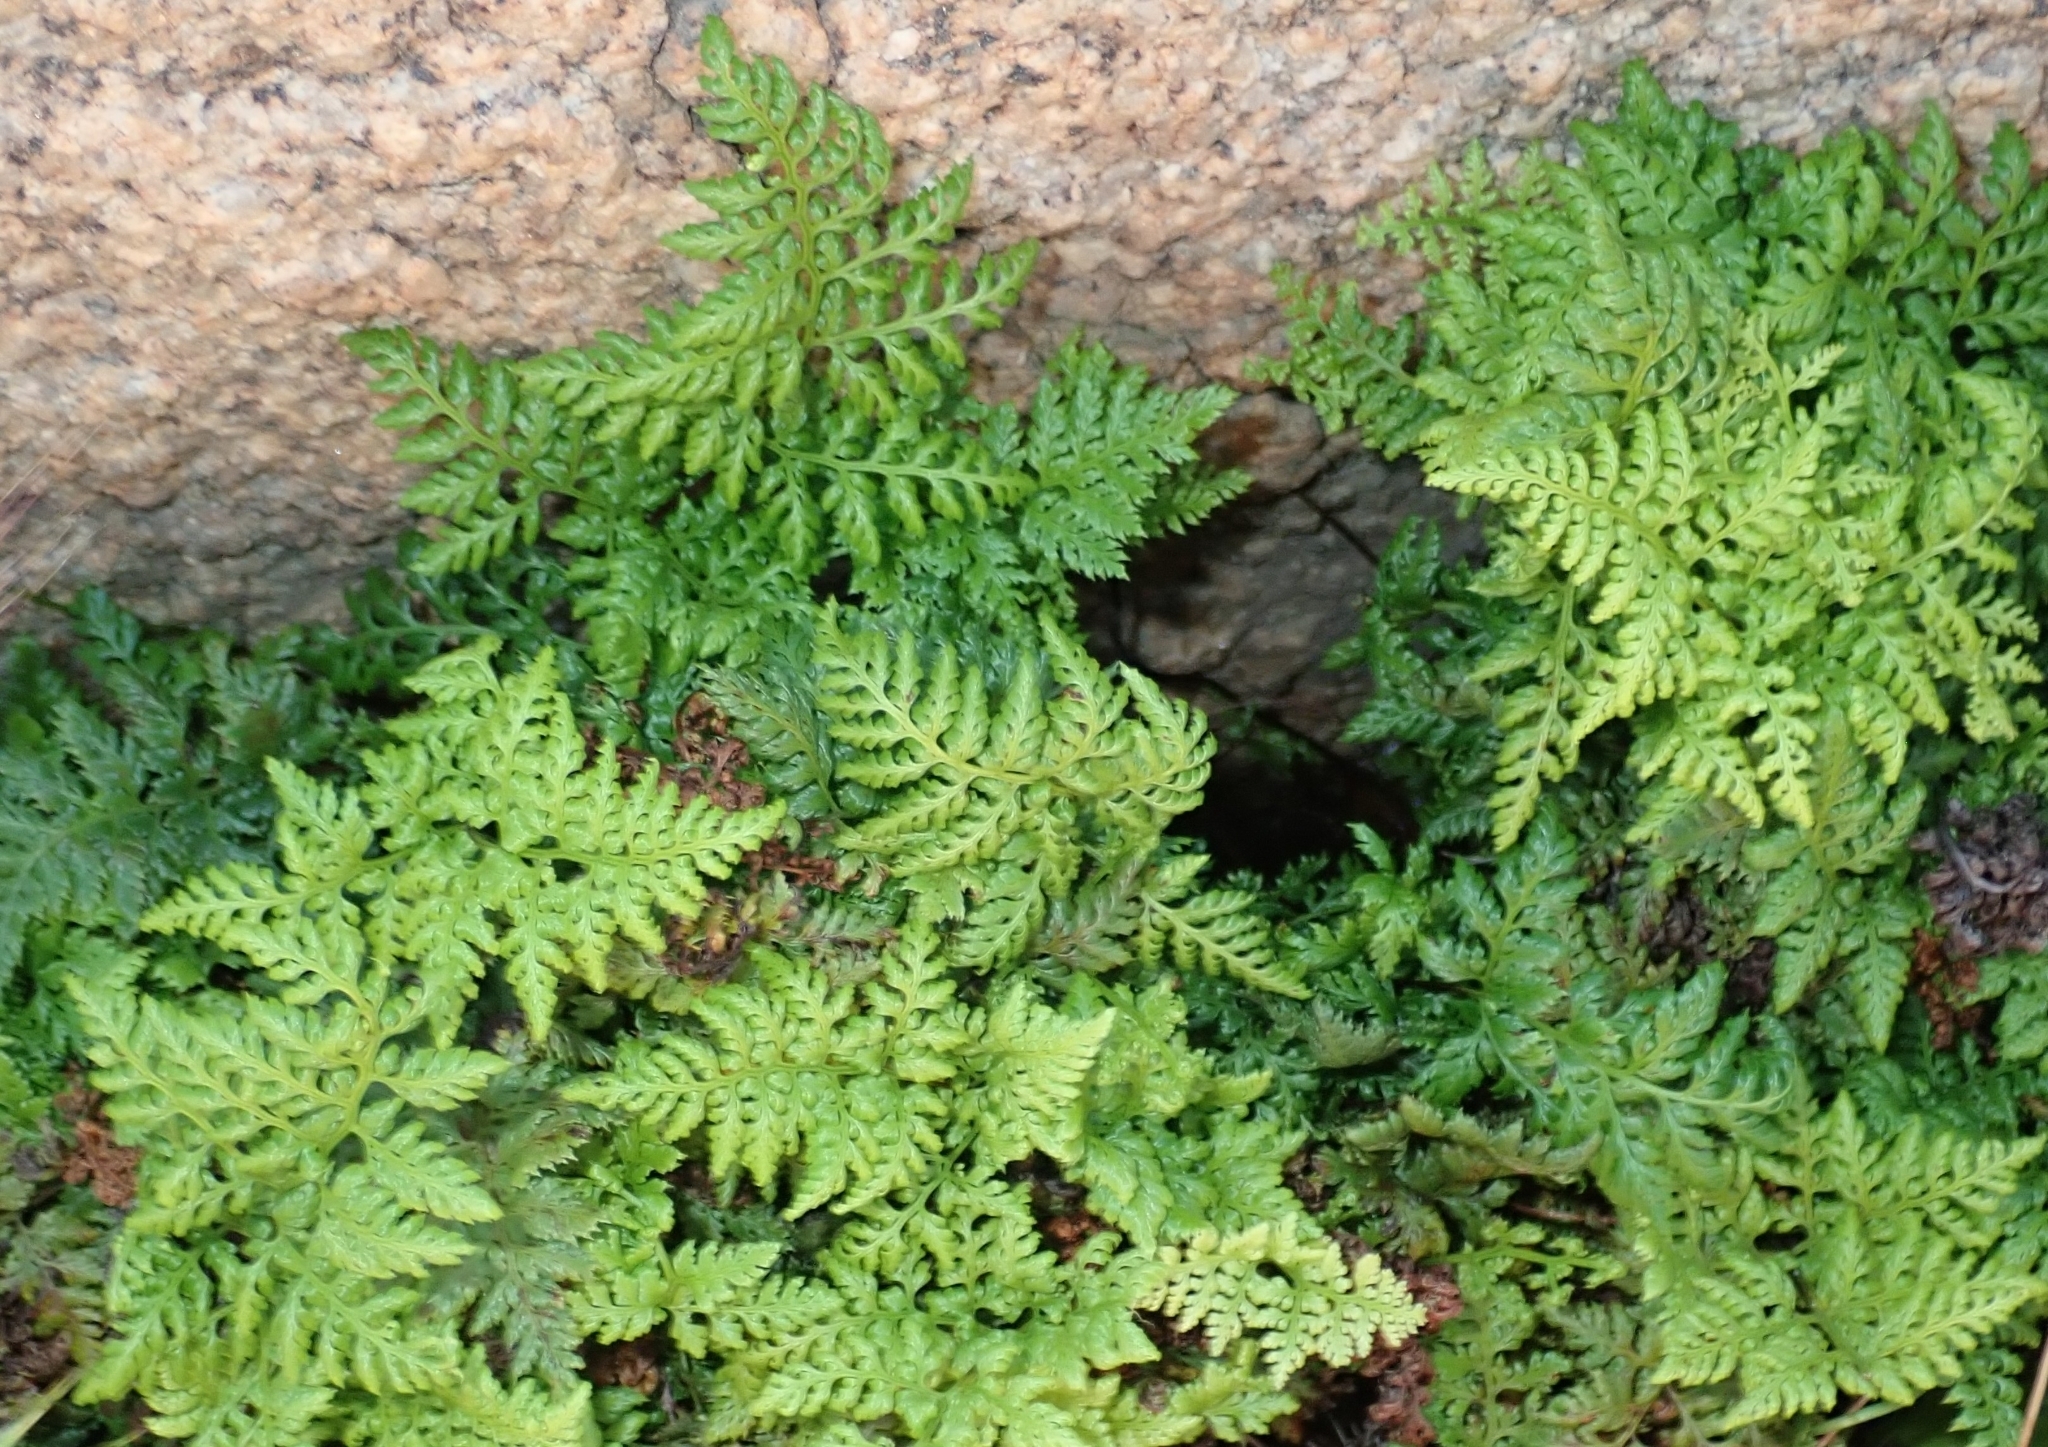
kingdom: Plantae
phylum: Tracheophyta
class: Polypodiopsida
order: Polypodiales
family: Pteridaceae
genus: Aspidotis
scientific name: Aspidotis californica
